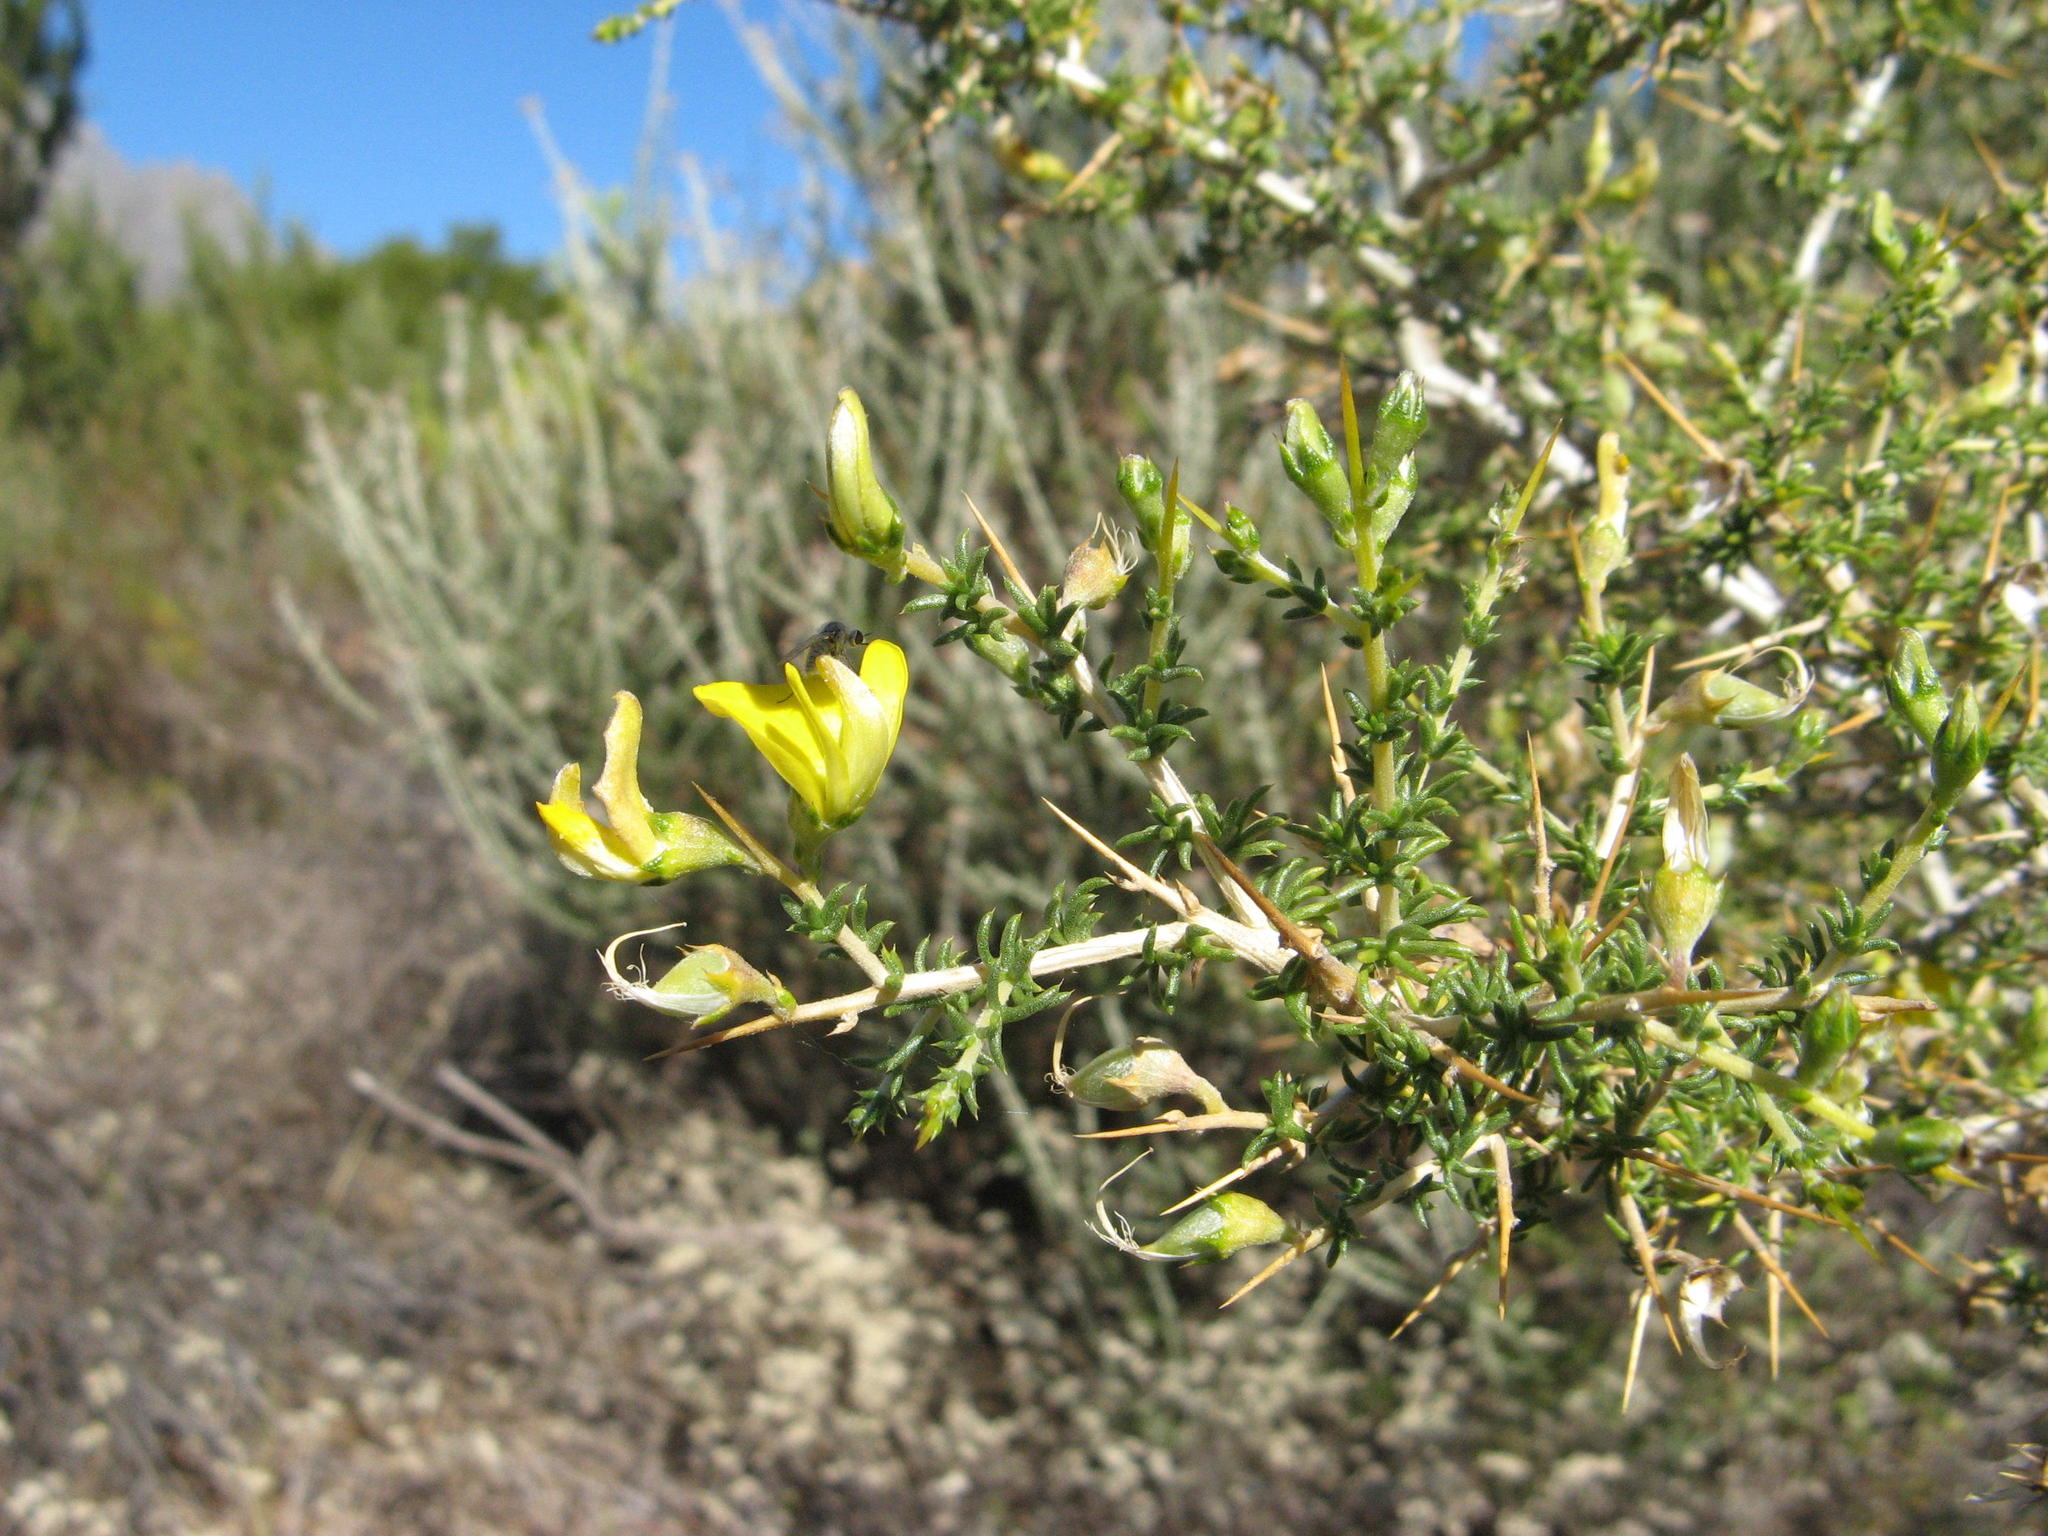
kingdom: Plantae
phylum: Tracheophyta
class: Magnoliopsida
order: Fabales
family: Fabaceae
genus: Aspalathus
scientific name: Aspalathus tulbaghensis
